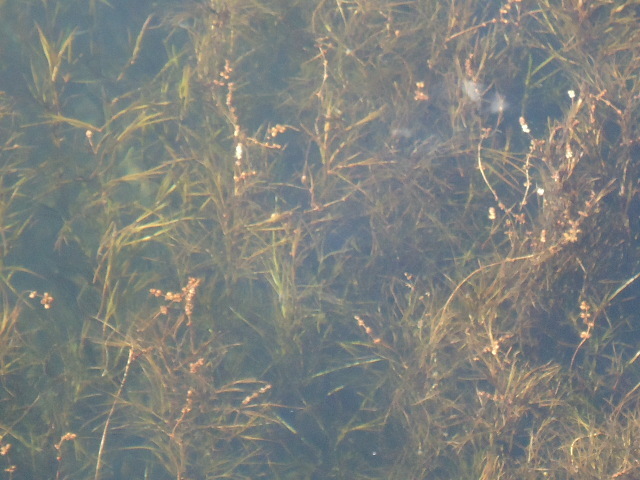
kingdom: Plantae
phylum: Tracheophyta
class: Liliopsida
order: Alismatales
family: Potamogetonaceae
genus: Stuckenia
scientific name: Stuckenia pectinata
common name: Sago pondweed
